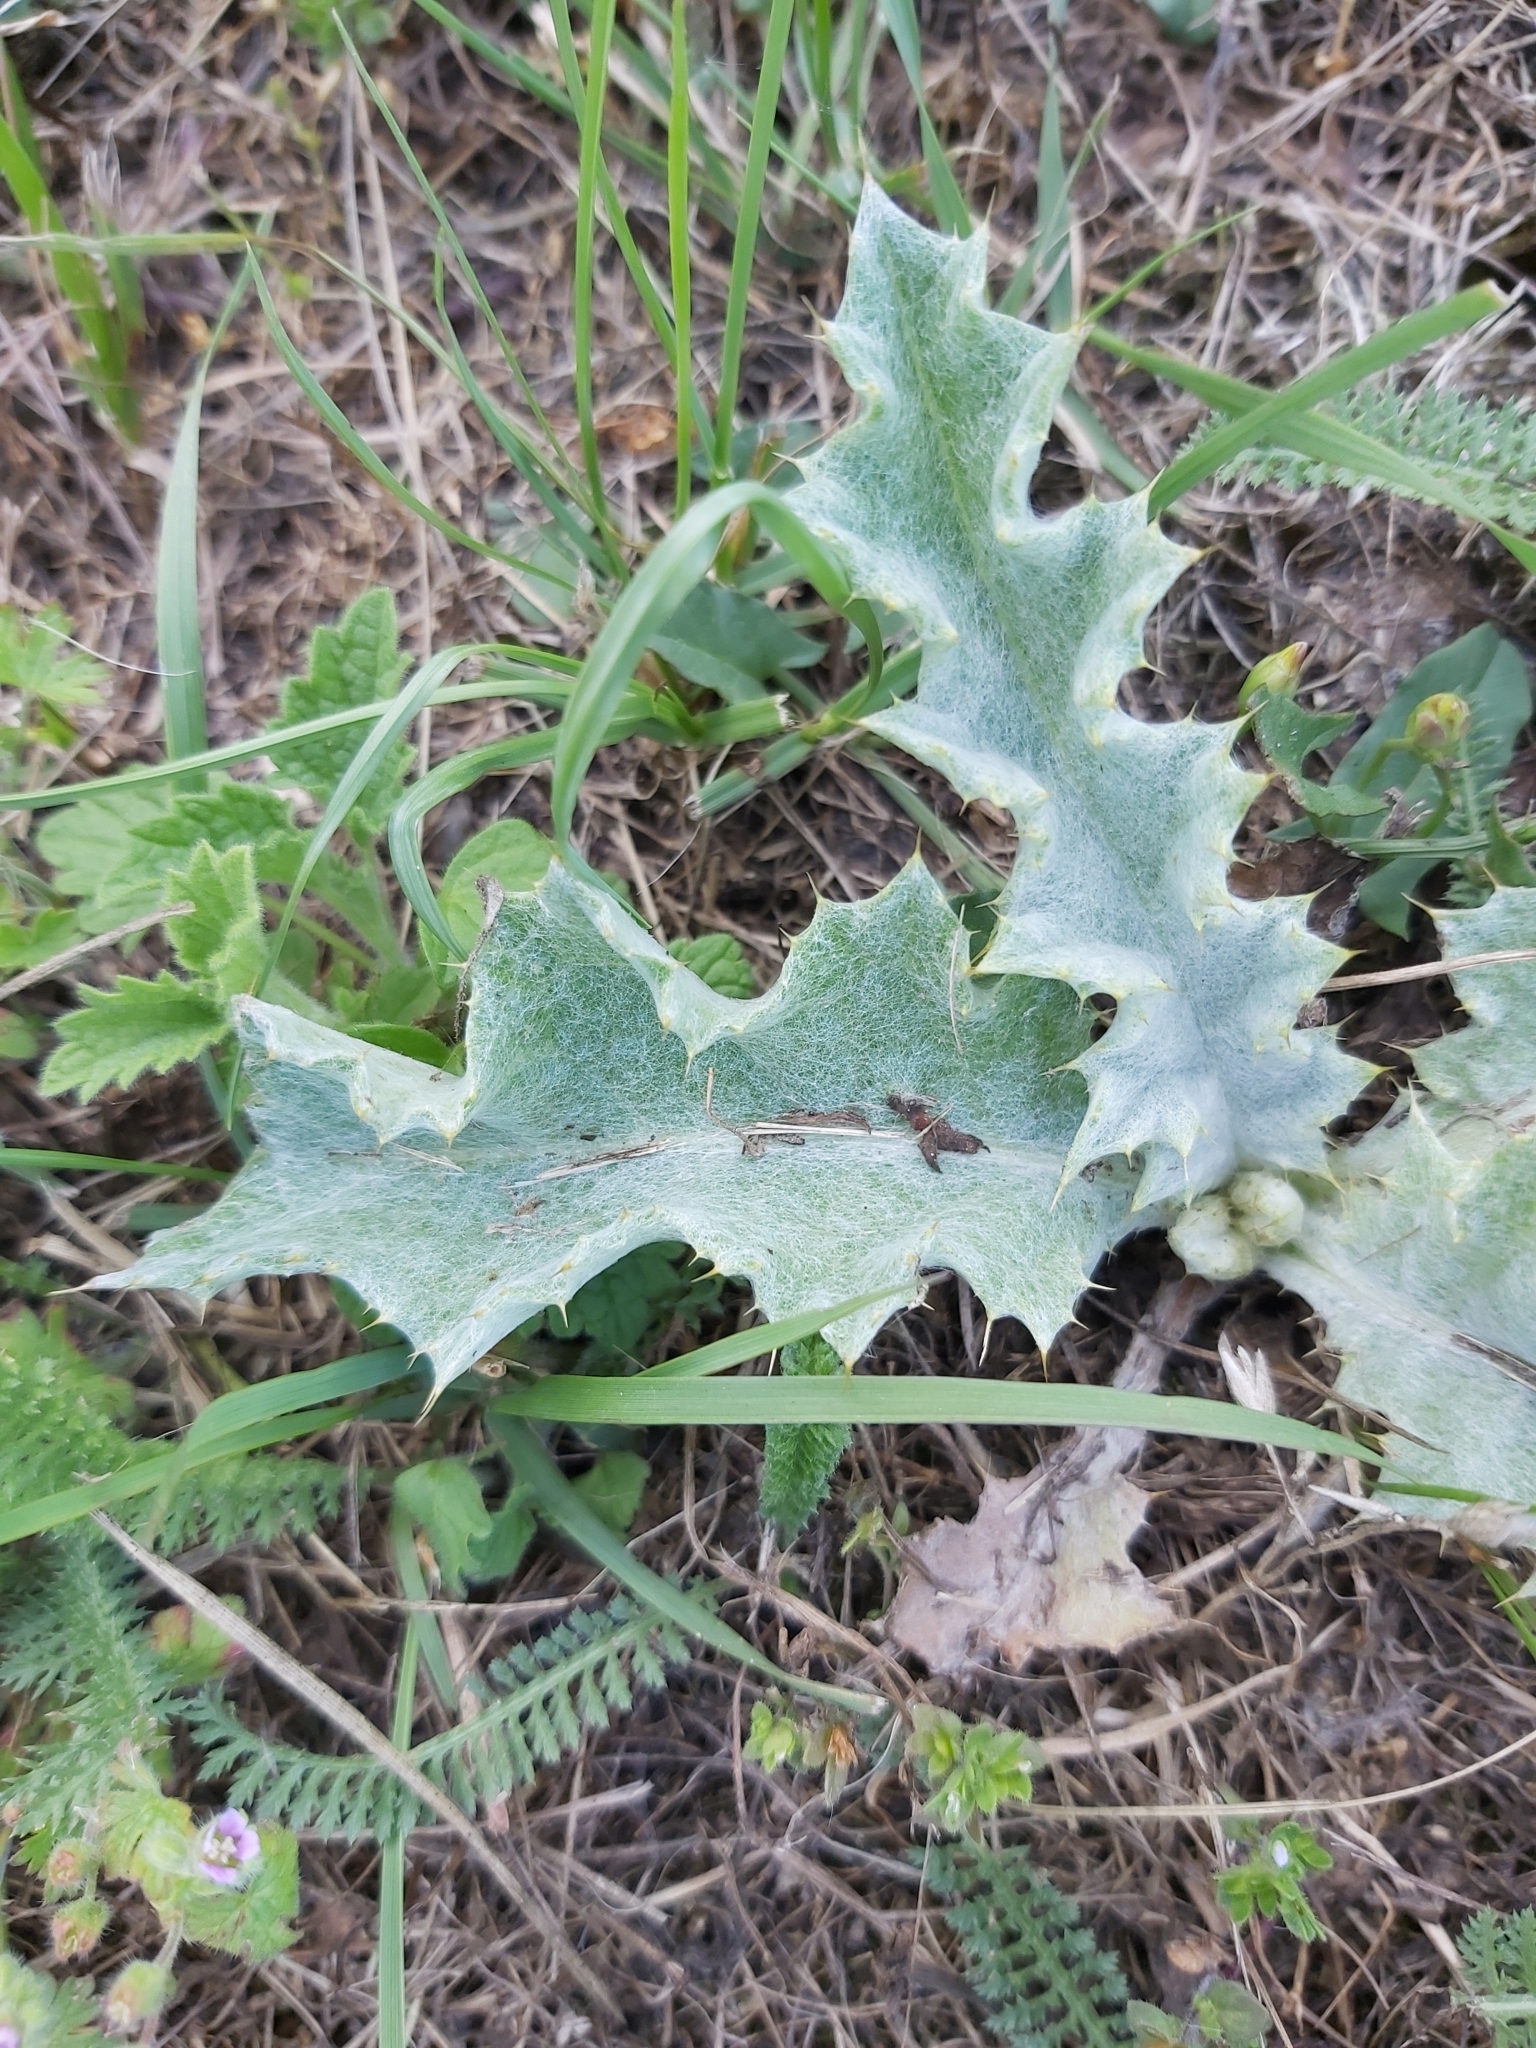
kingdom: Plantae
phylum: Tracheophyta
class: Magnoliopsida
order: Asterales
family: Asteraceae
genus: Onopordum
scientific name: Onopordum acanthium
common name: Scotch thistle
